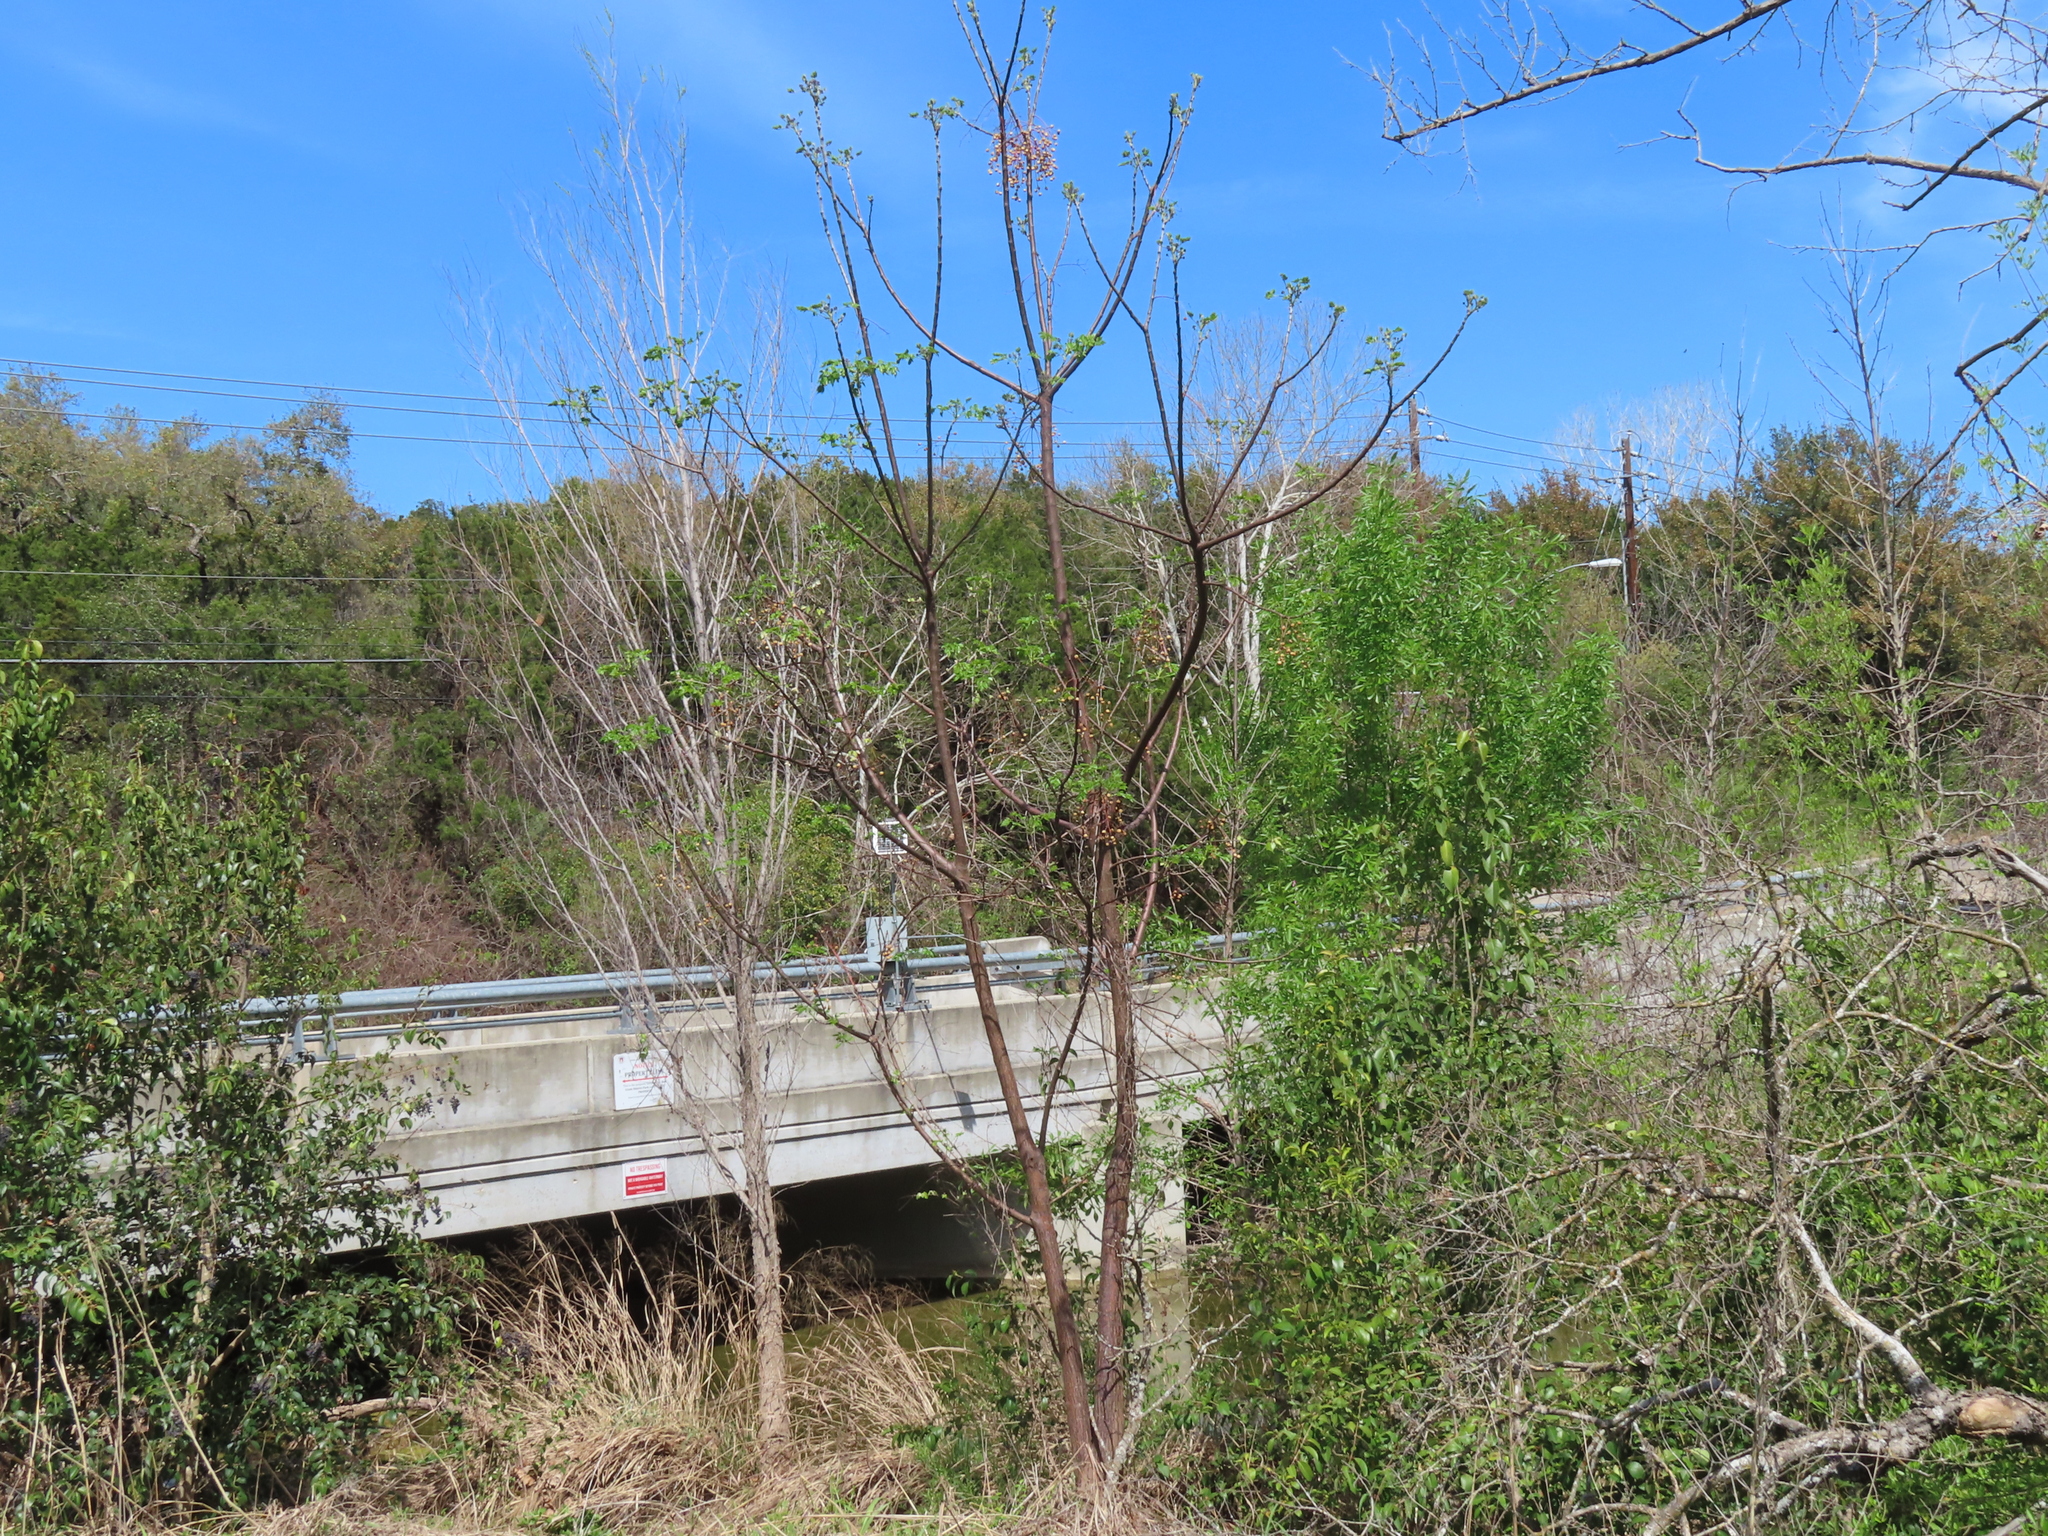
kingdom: Plantae
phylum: Tracheophyta
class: Magnoliopsida
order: Sapindales
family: Meliaceae
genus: Melia
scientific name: Melia azedarach
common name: Chinaberrytree
